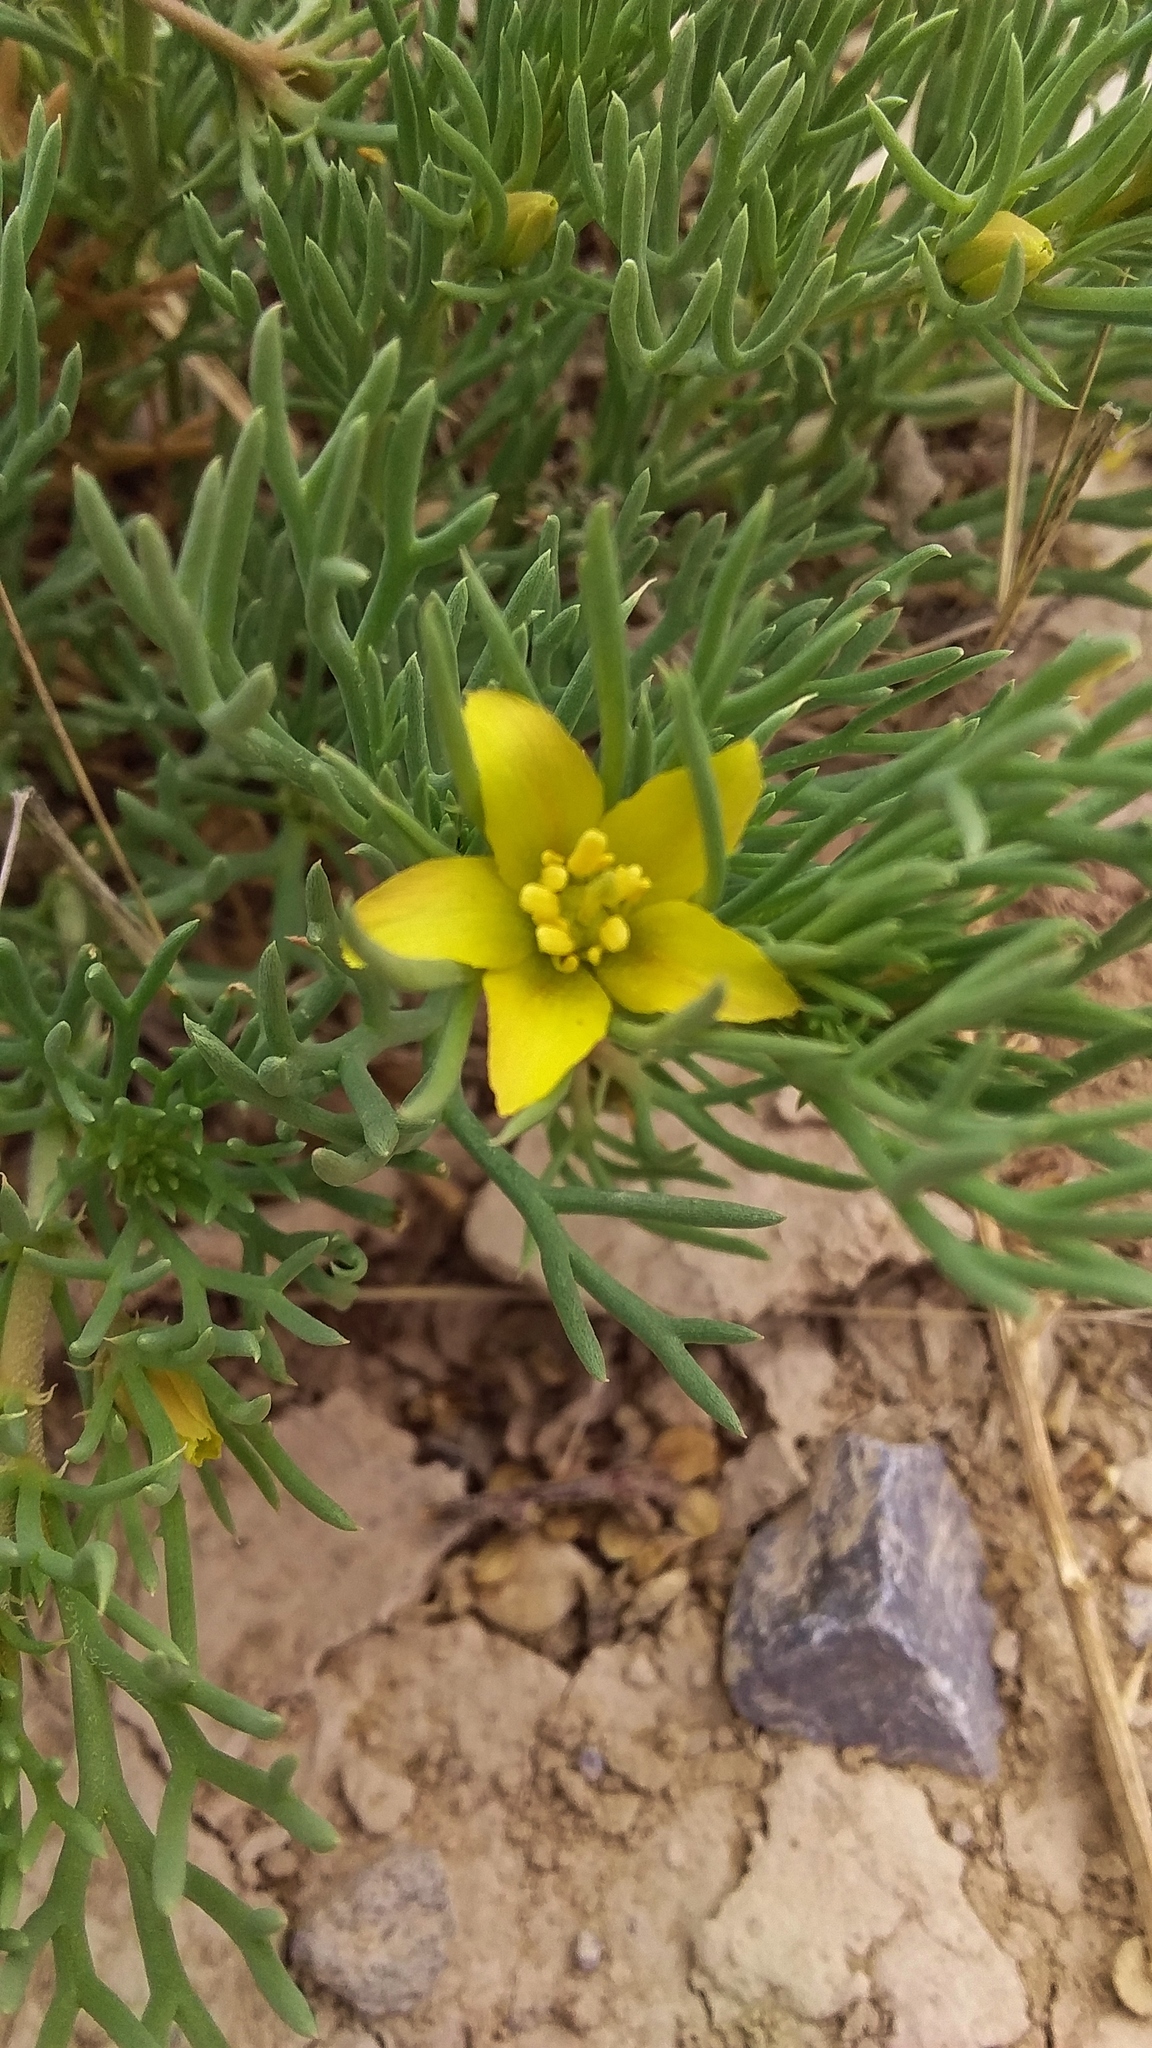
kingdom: Plantae
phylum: Tracheophyta
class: Magnoliopsida
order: Sapindales
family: Tetradiclidaceae
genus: Peganum
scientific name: Peganum mexicanum
